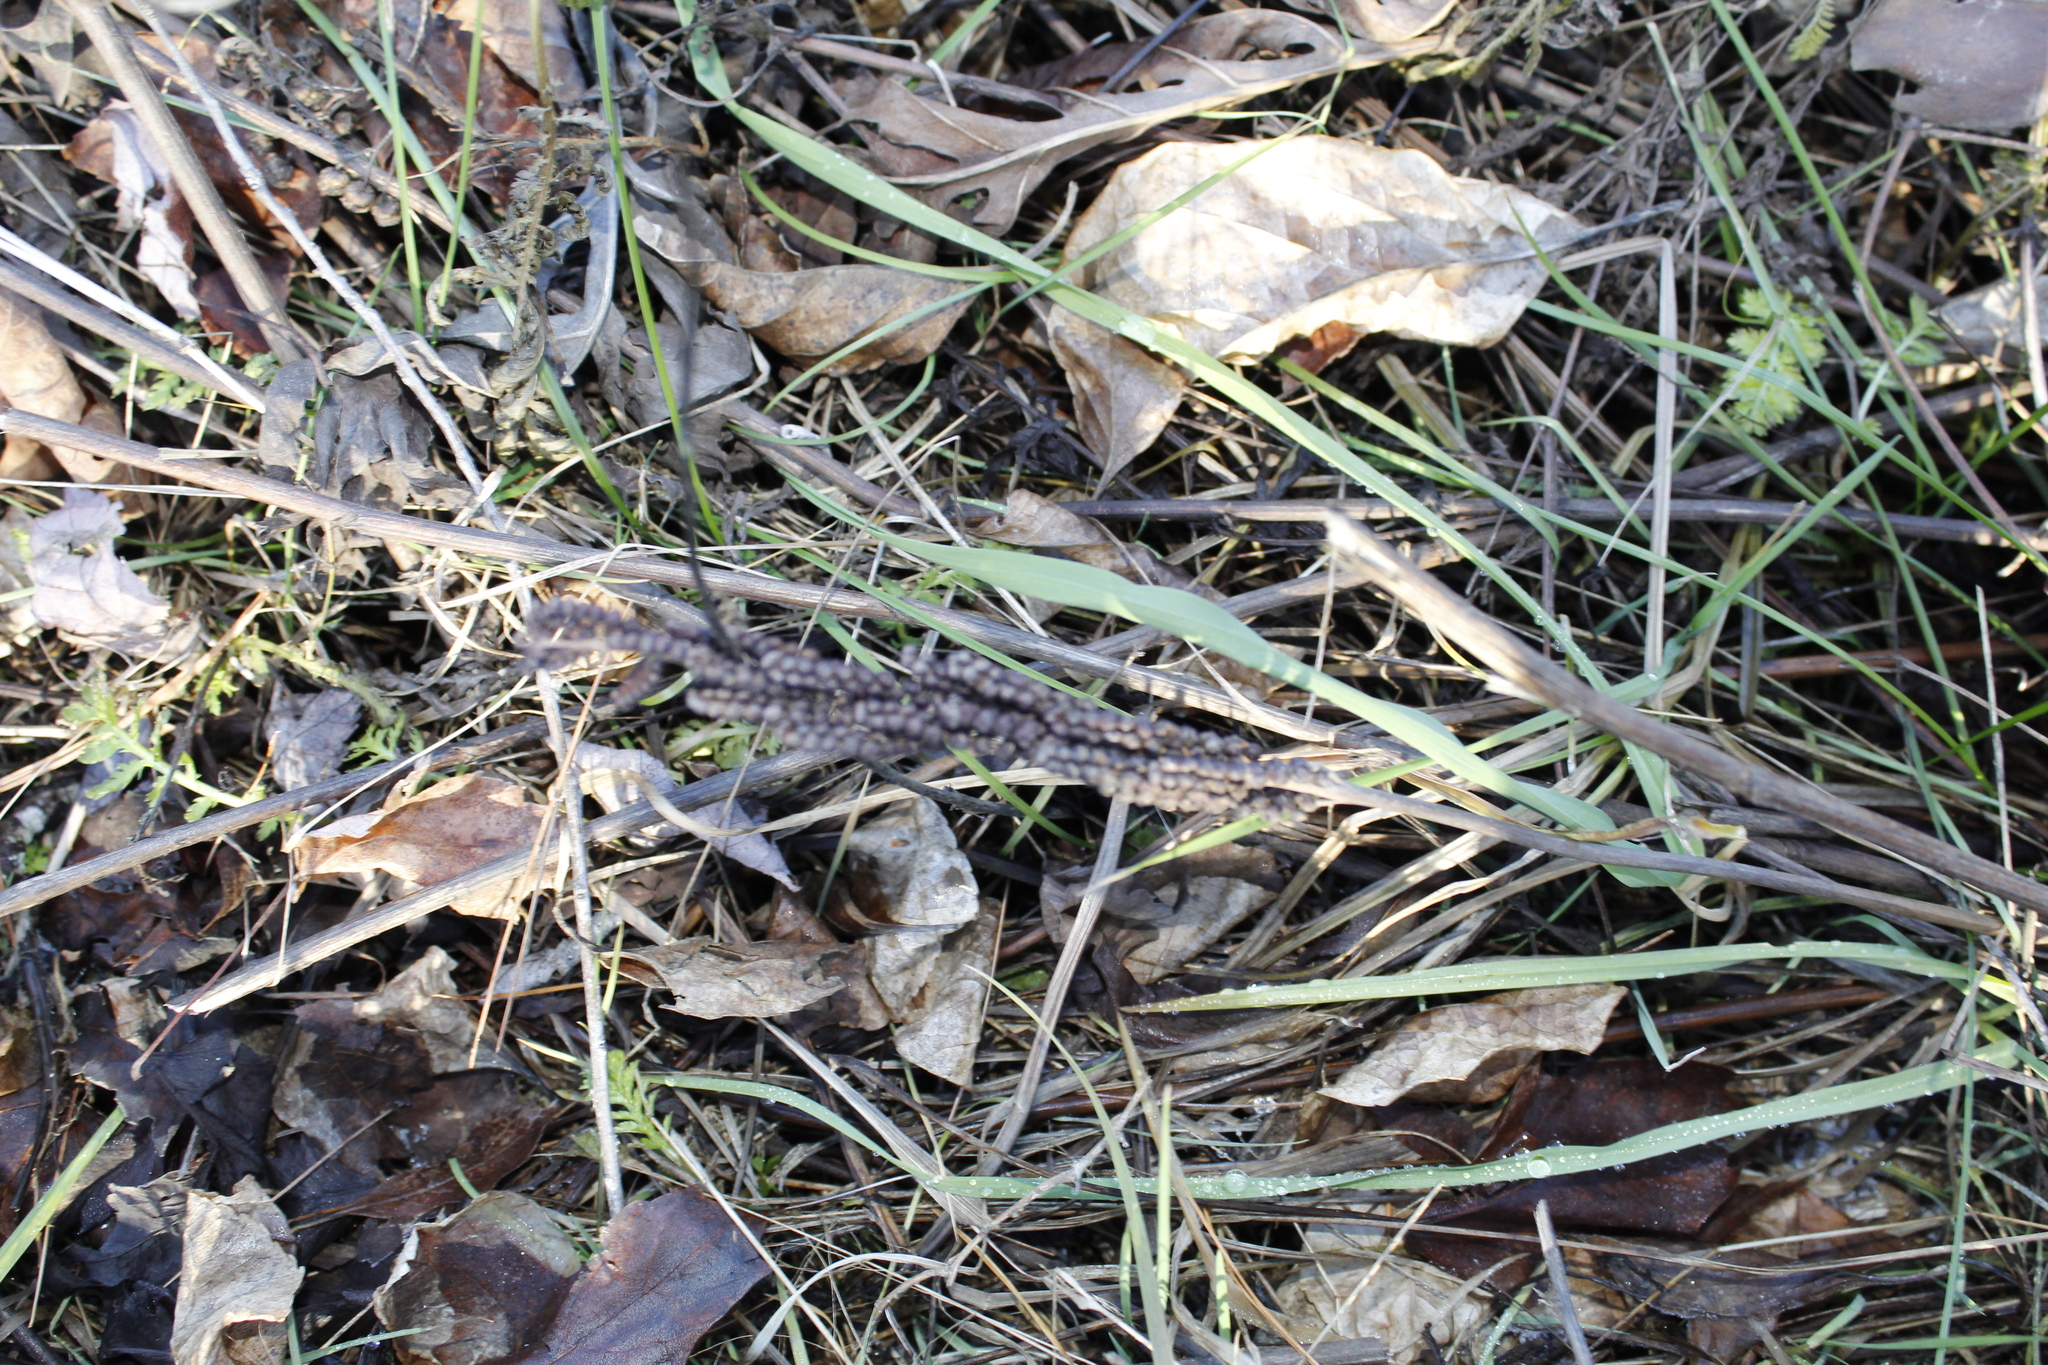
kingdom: Plantae
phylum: Tracheophyta
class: Polypodiopsida
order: Polypodiales
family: Onocleaceae
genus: Onoclea
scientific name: Onoclea sensibilis
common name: Sensitive fern
